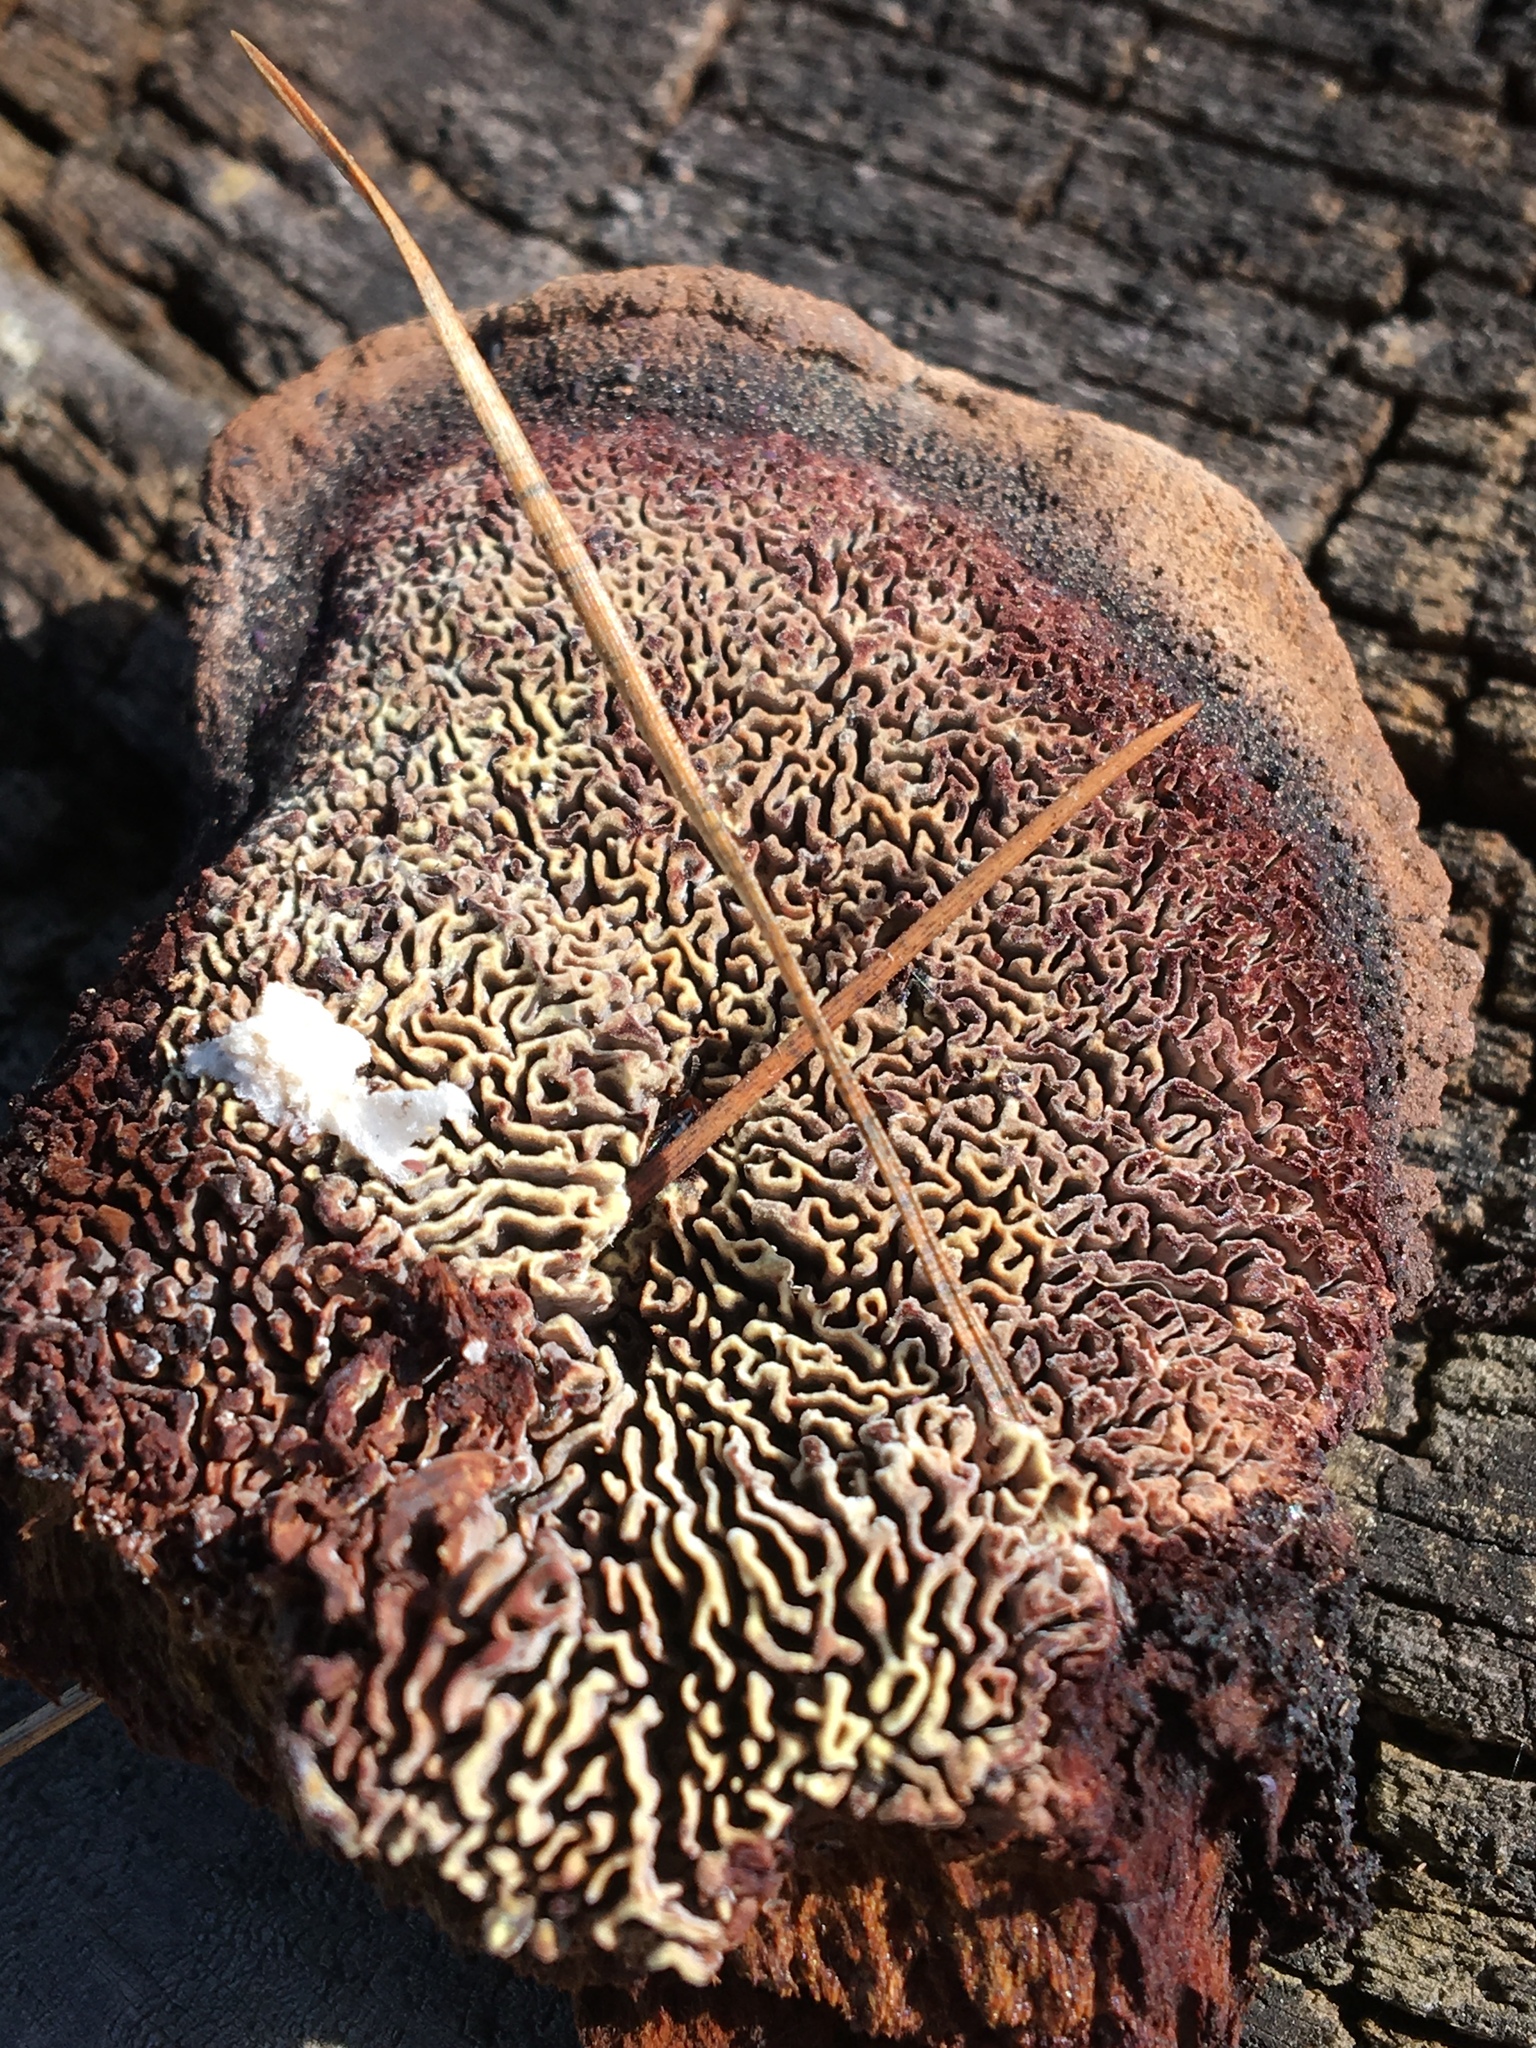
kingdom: Fungi
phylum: Basidiomycota
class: Agaricomycetes
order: Gloeophyllales
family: Gloeophyllaceae
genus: Gloeophyllum
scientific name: Gloeophyllum sepiarium
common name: Conifer mazegill
